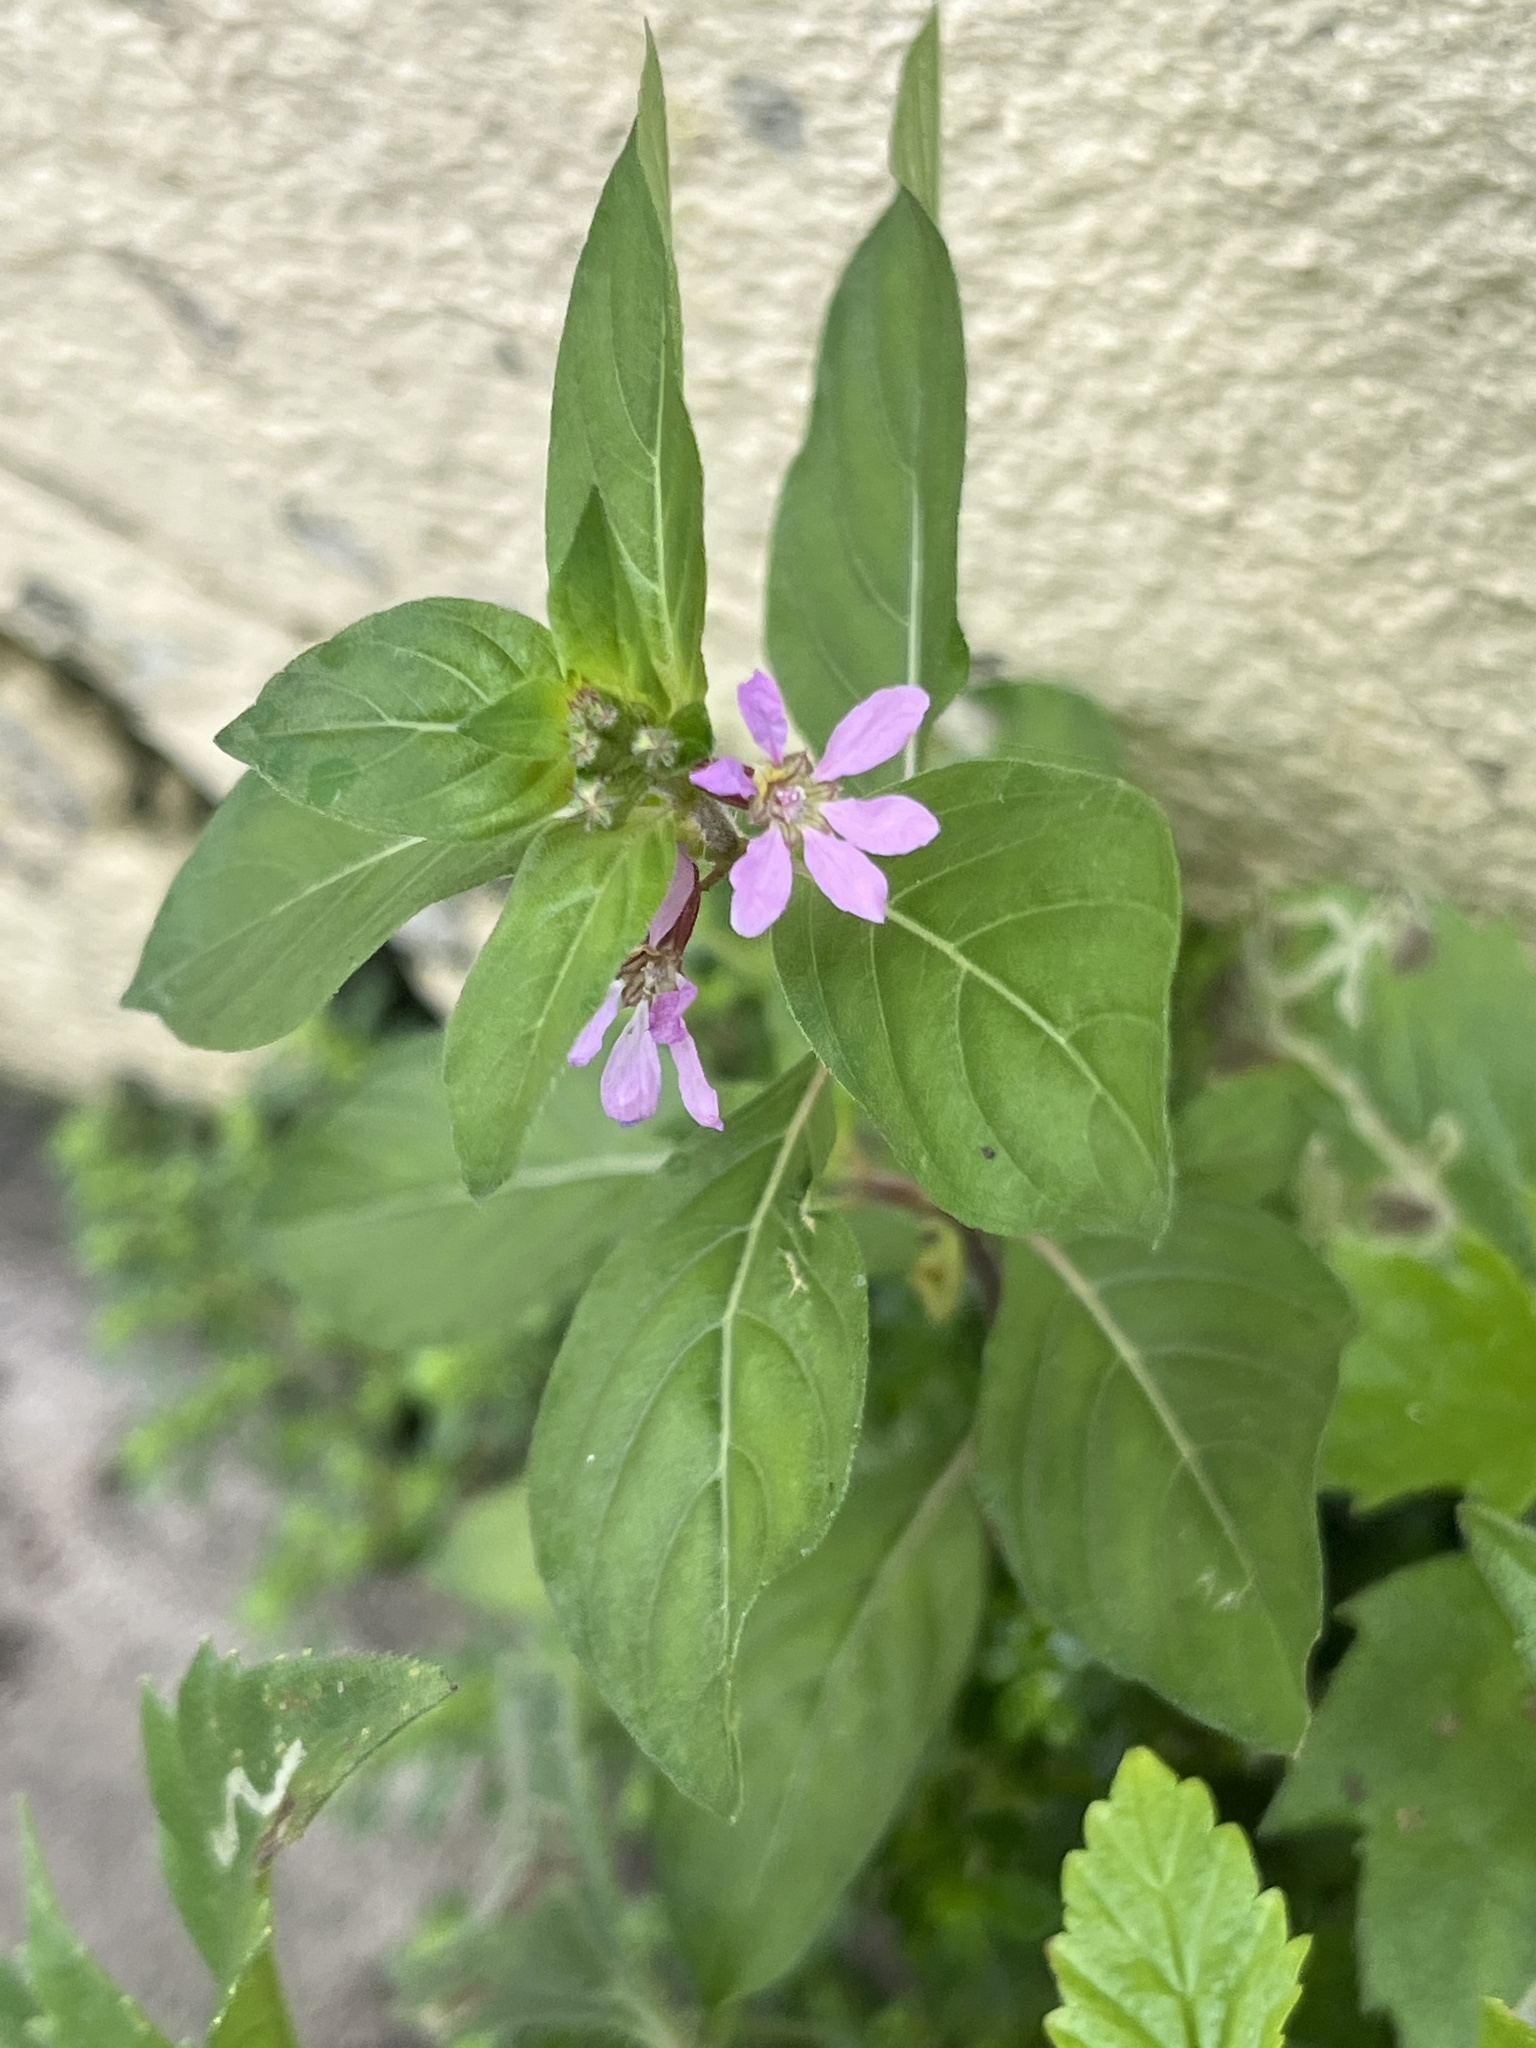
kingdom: Plantae
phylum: Tracheophyta
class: Magnoliopsida
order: Myrtales
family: Lythraceae
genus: Cuphea
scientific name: Cuphea strigulosa
